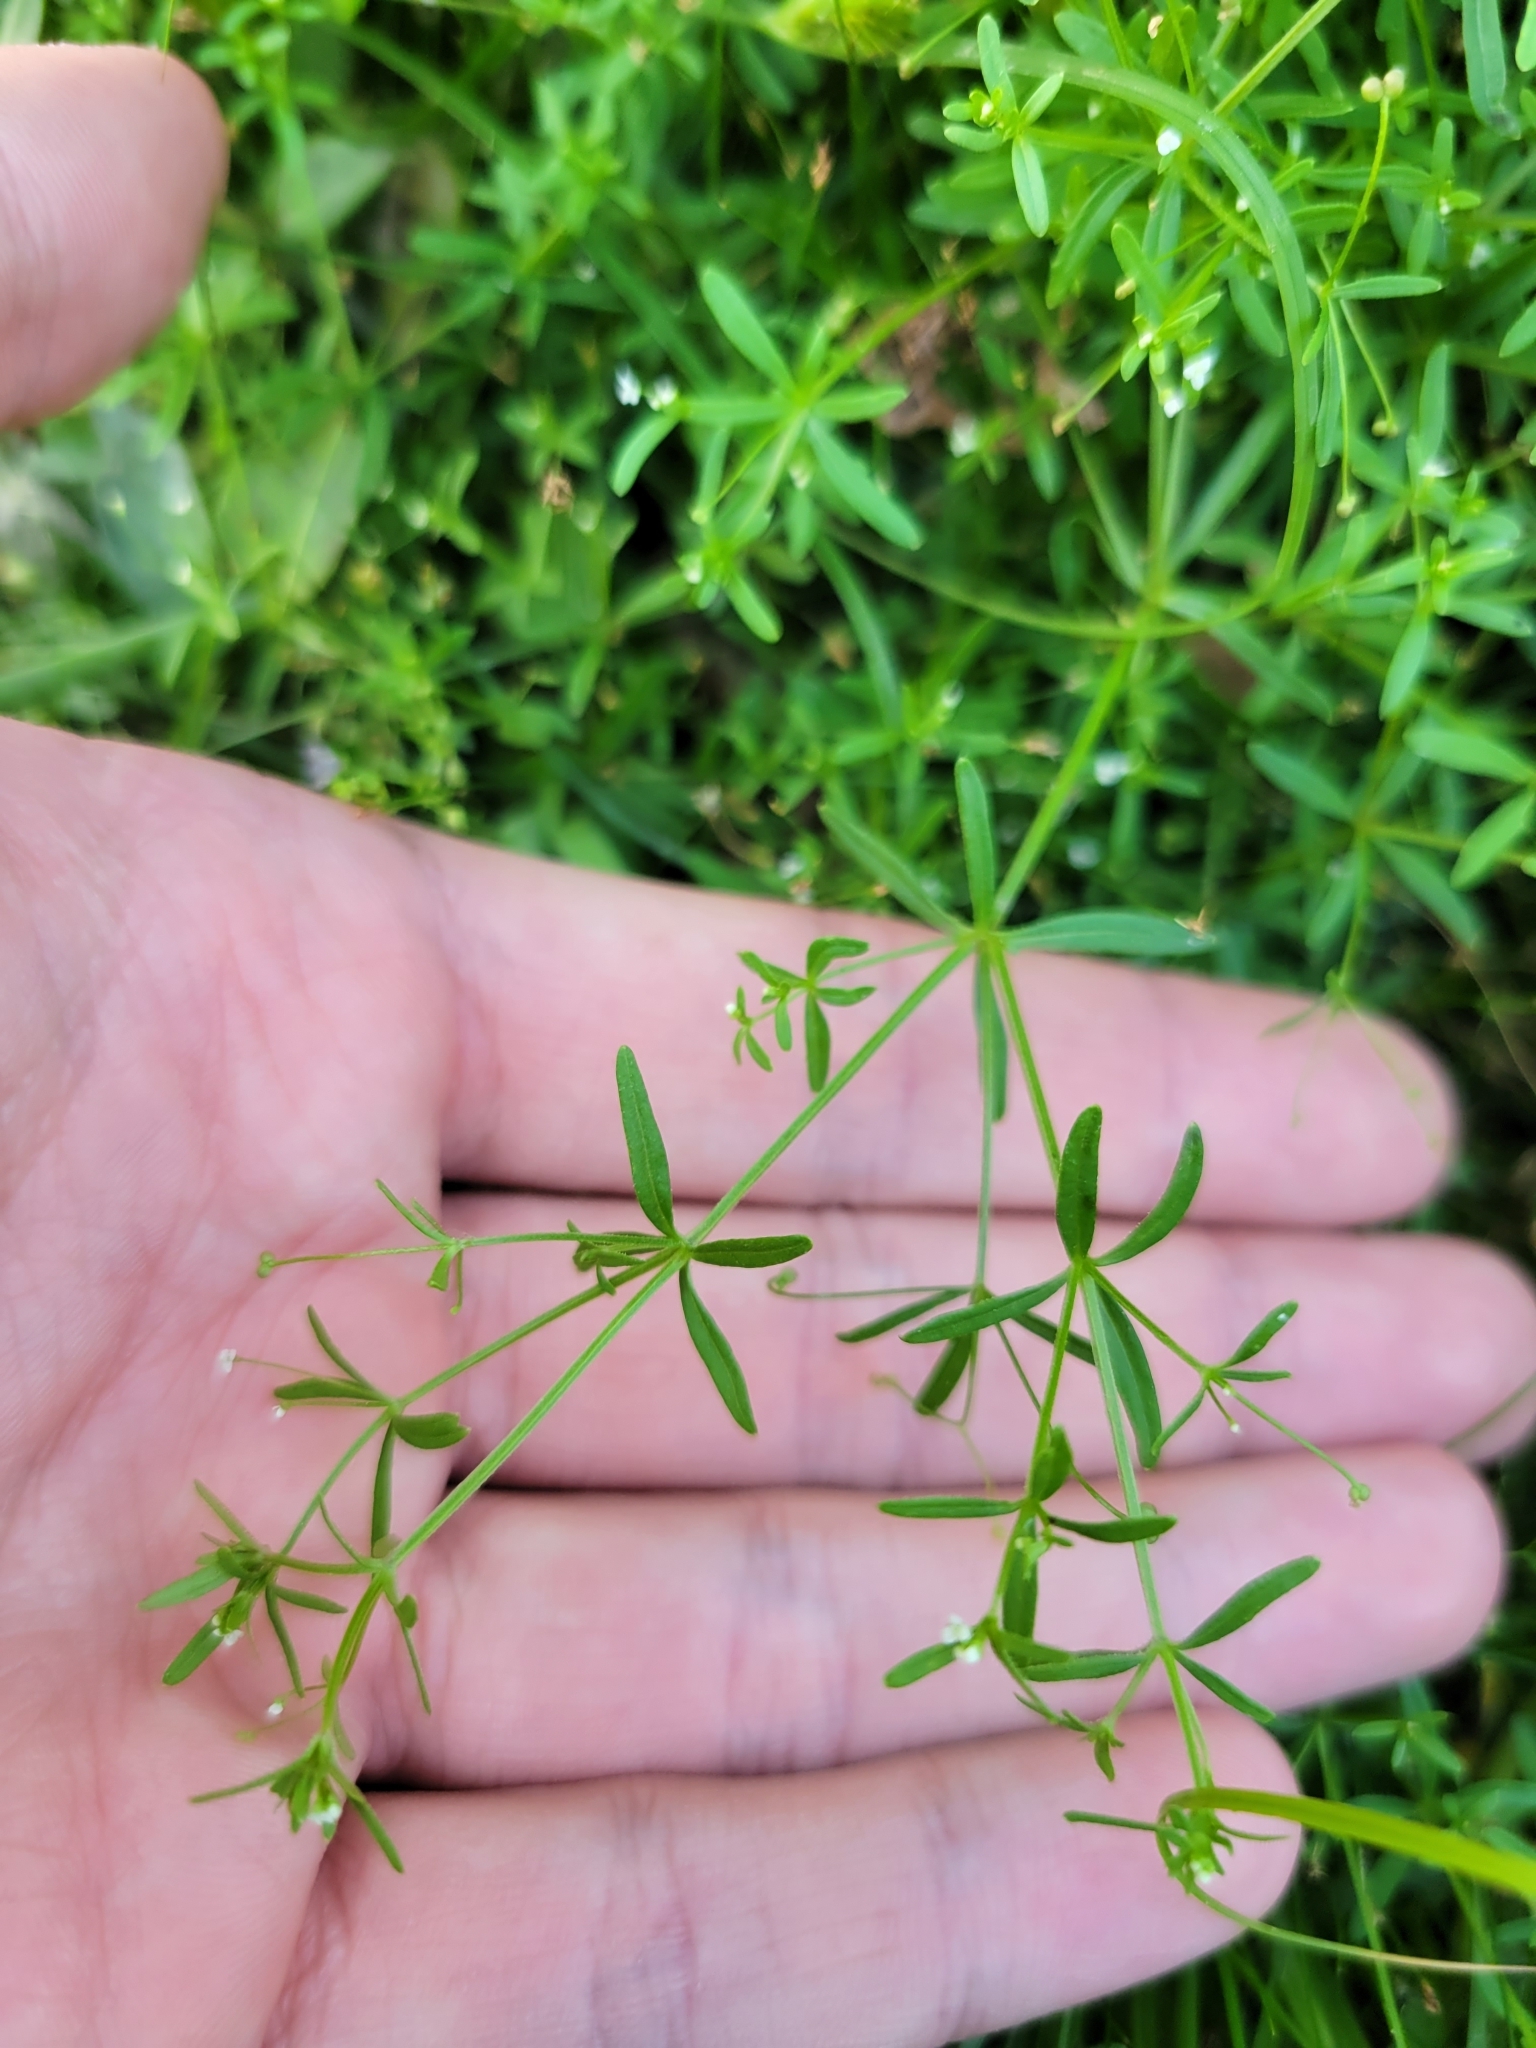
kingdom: Plantae
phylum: Tracheophyta
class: Magnoliopsida
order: Gentianales
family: Rubiaceae
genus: Galium
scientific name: Galium trifidum
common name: Small bedstraw
